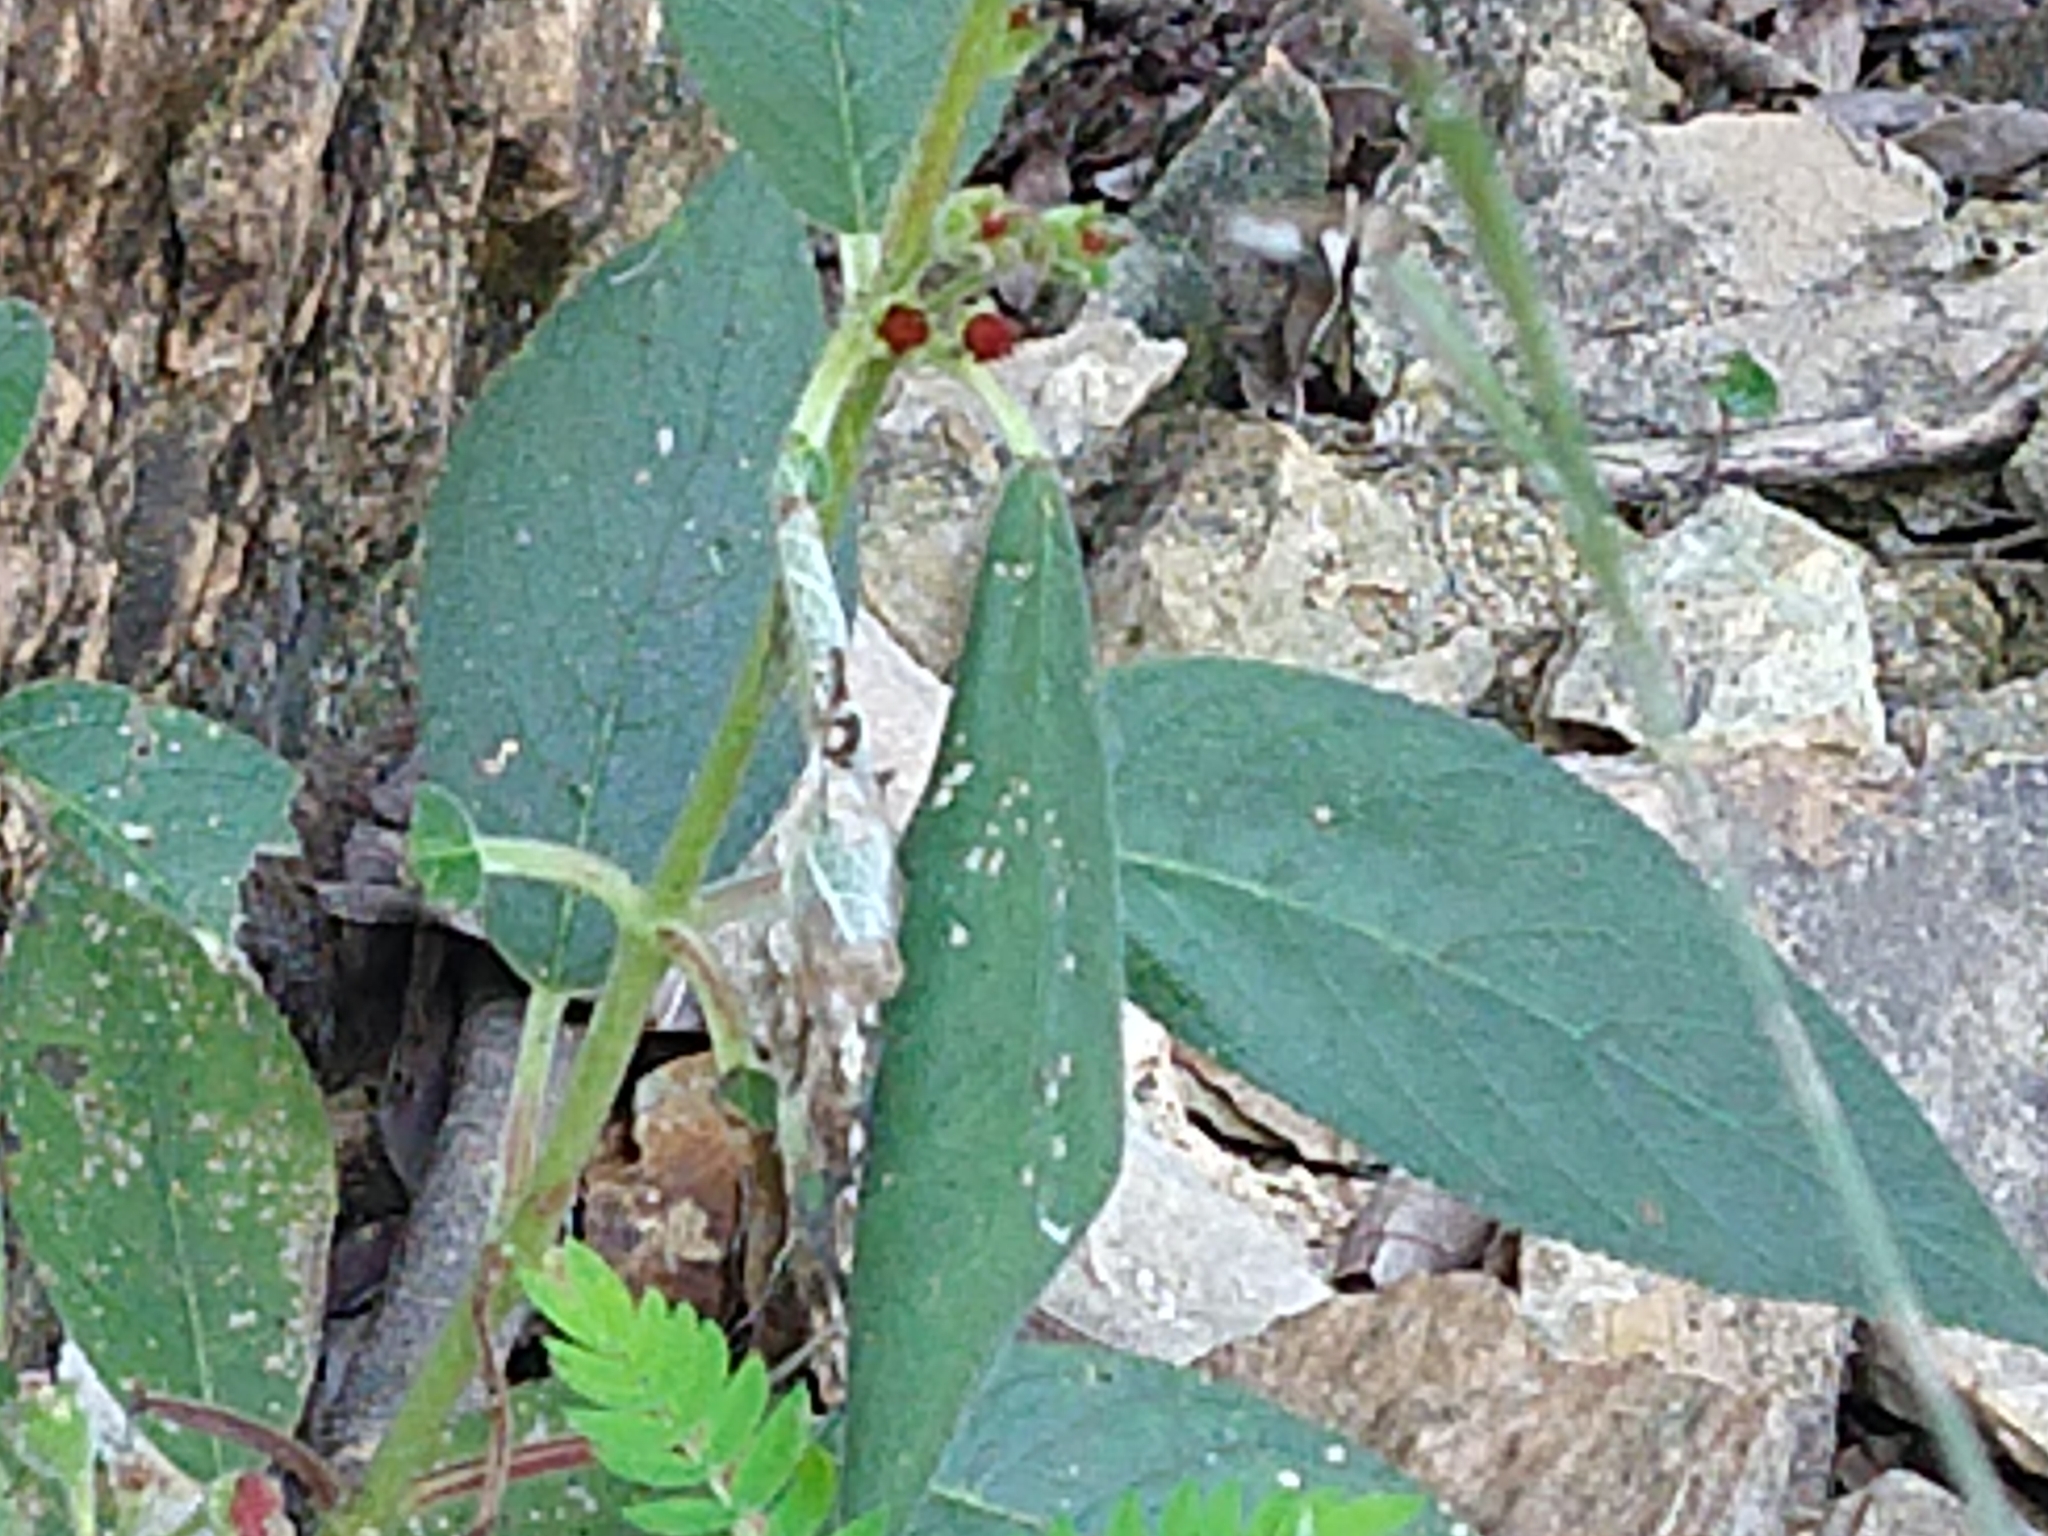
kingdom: Plantae
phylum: Tracheophyta
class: Magnoliopsida
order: Lamiales
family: Gesneriaceae
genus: Kohleria
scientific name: Kohleria spicata
